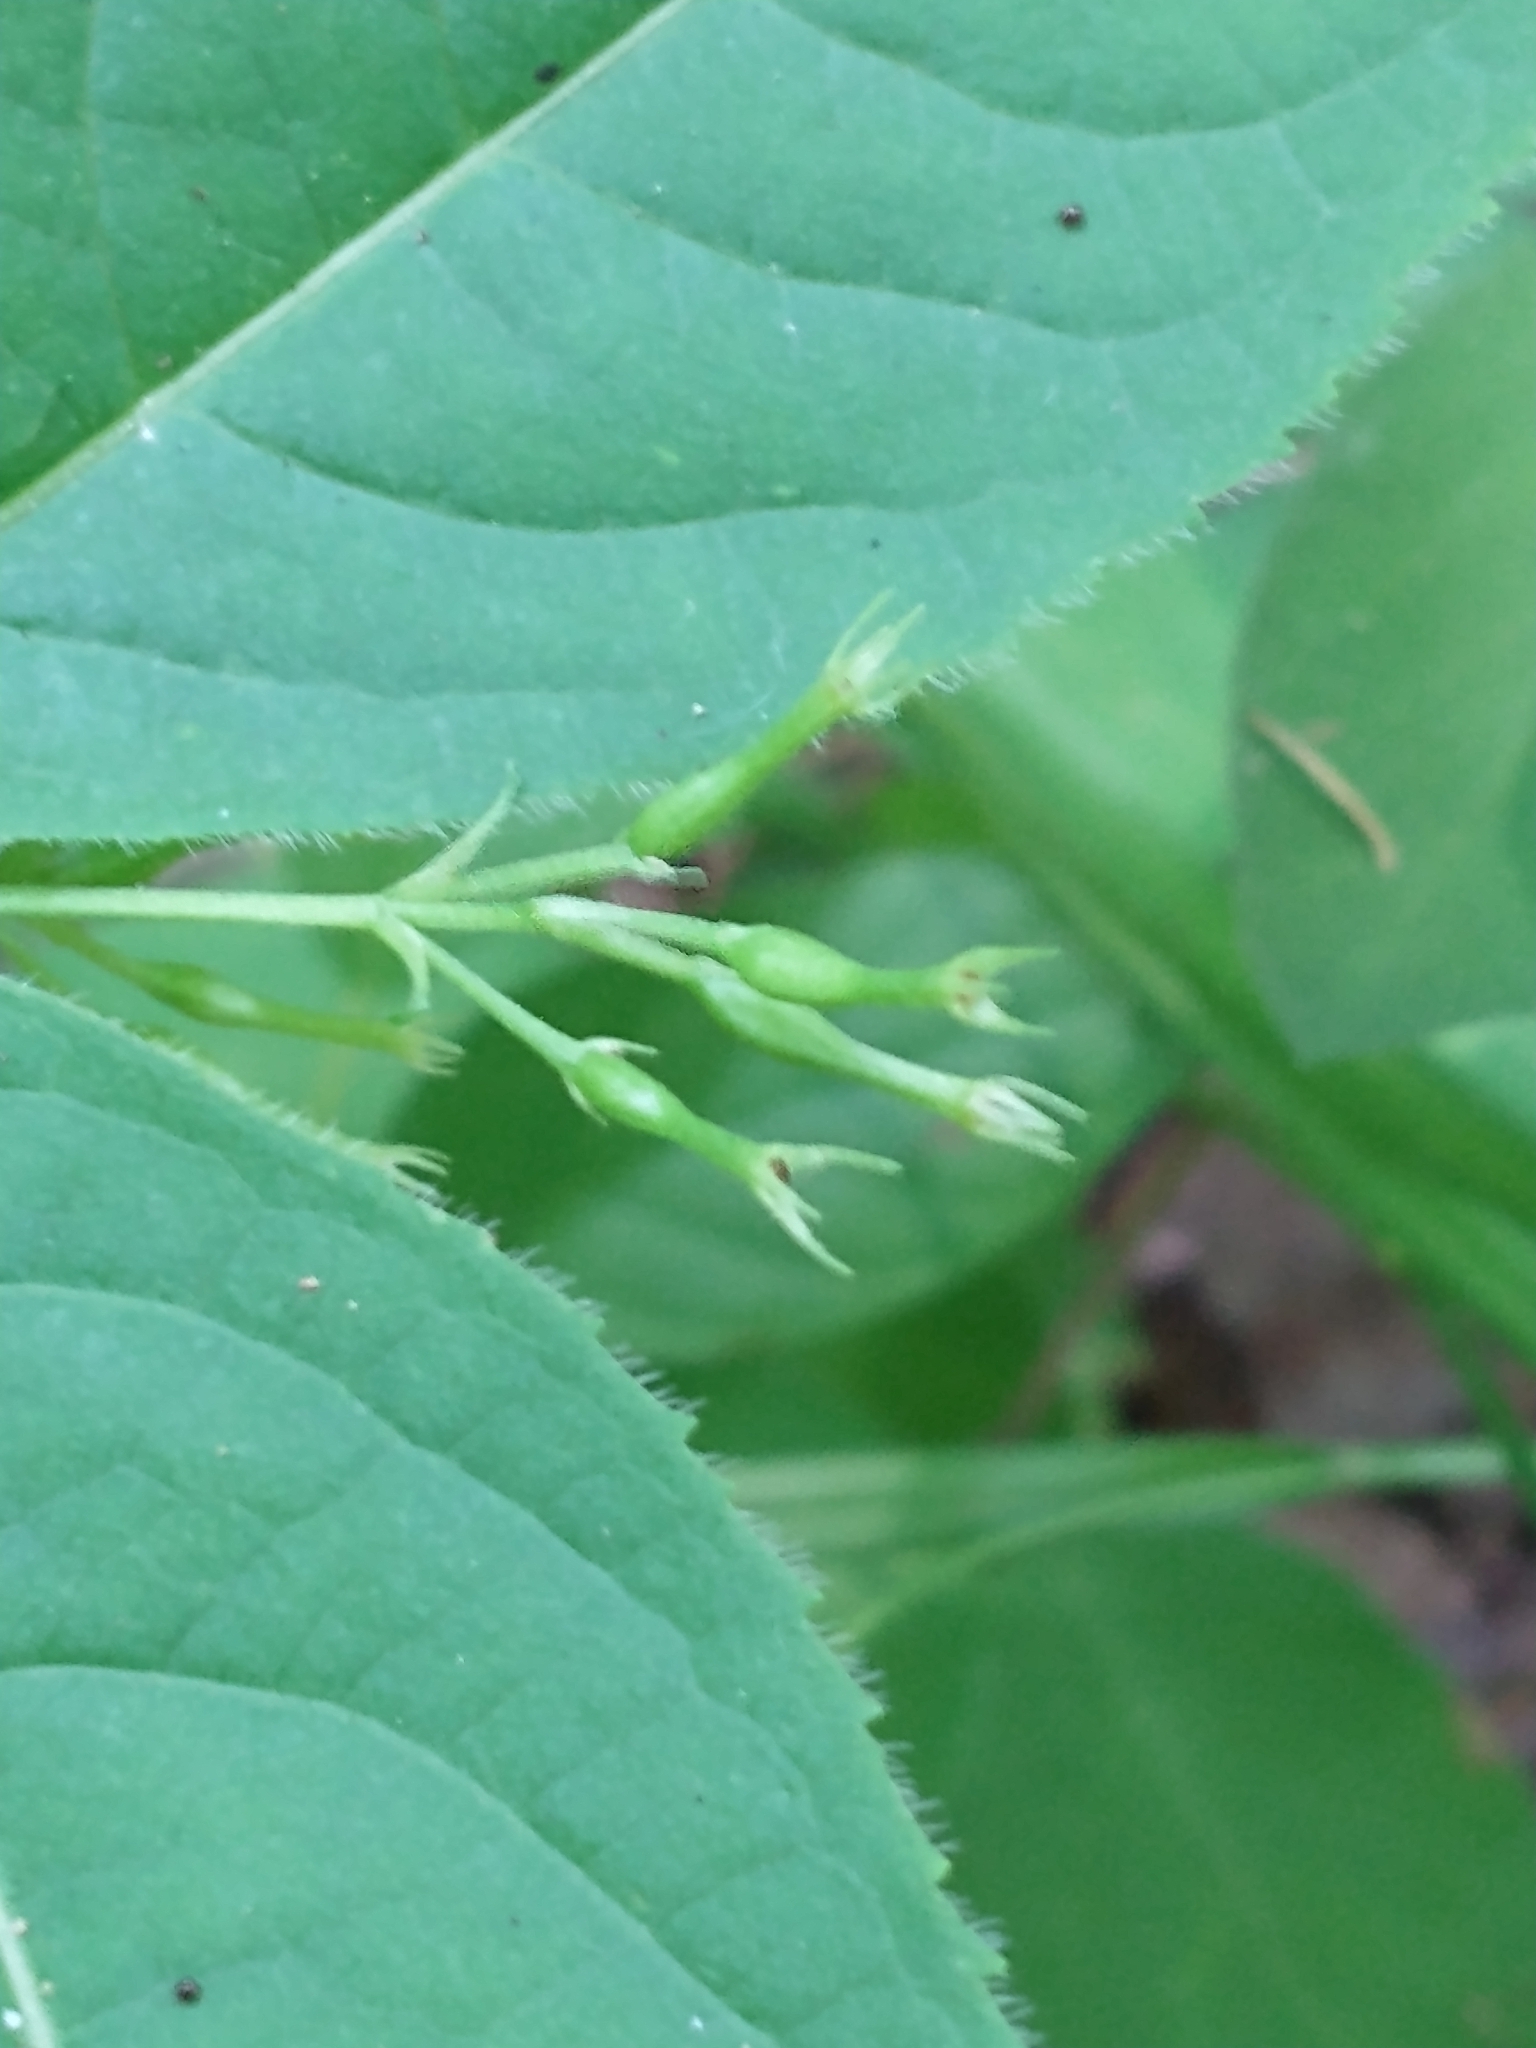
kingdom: Plantae
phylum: Tracheophyta
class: Magnoliopsida
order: Dipsacales
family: Caprifoliaceae
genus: Diervilla
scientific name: Diervilla lonicera
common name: Bush-honeysuckle
